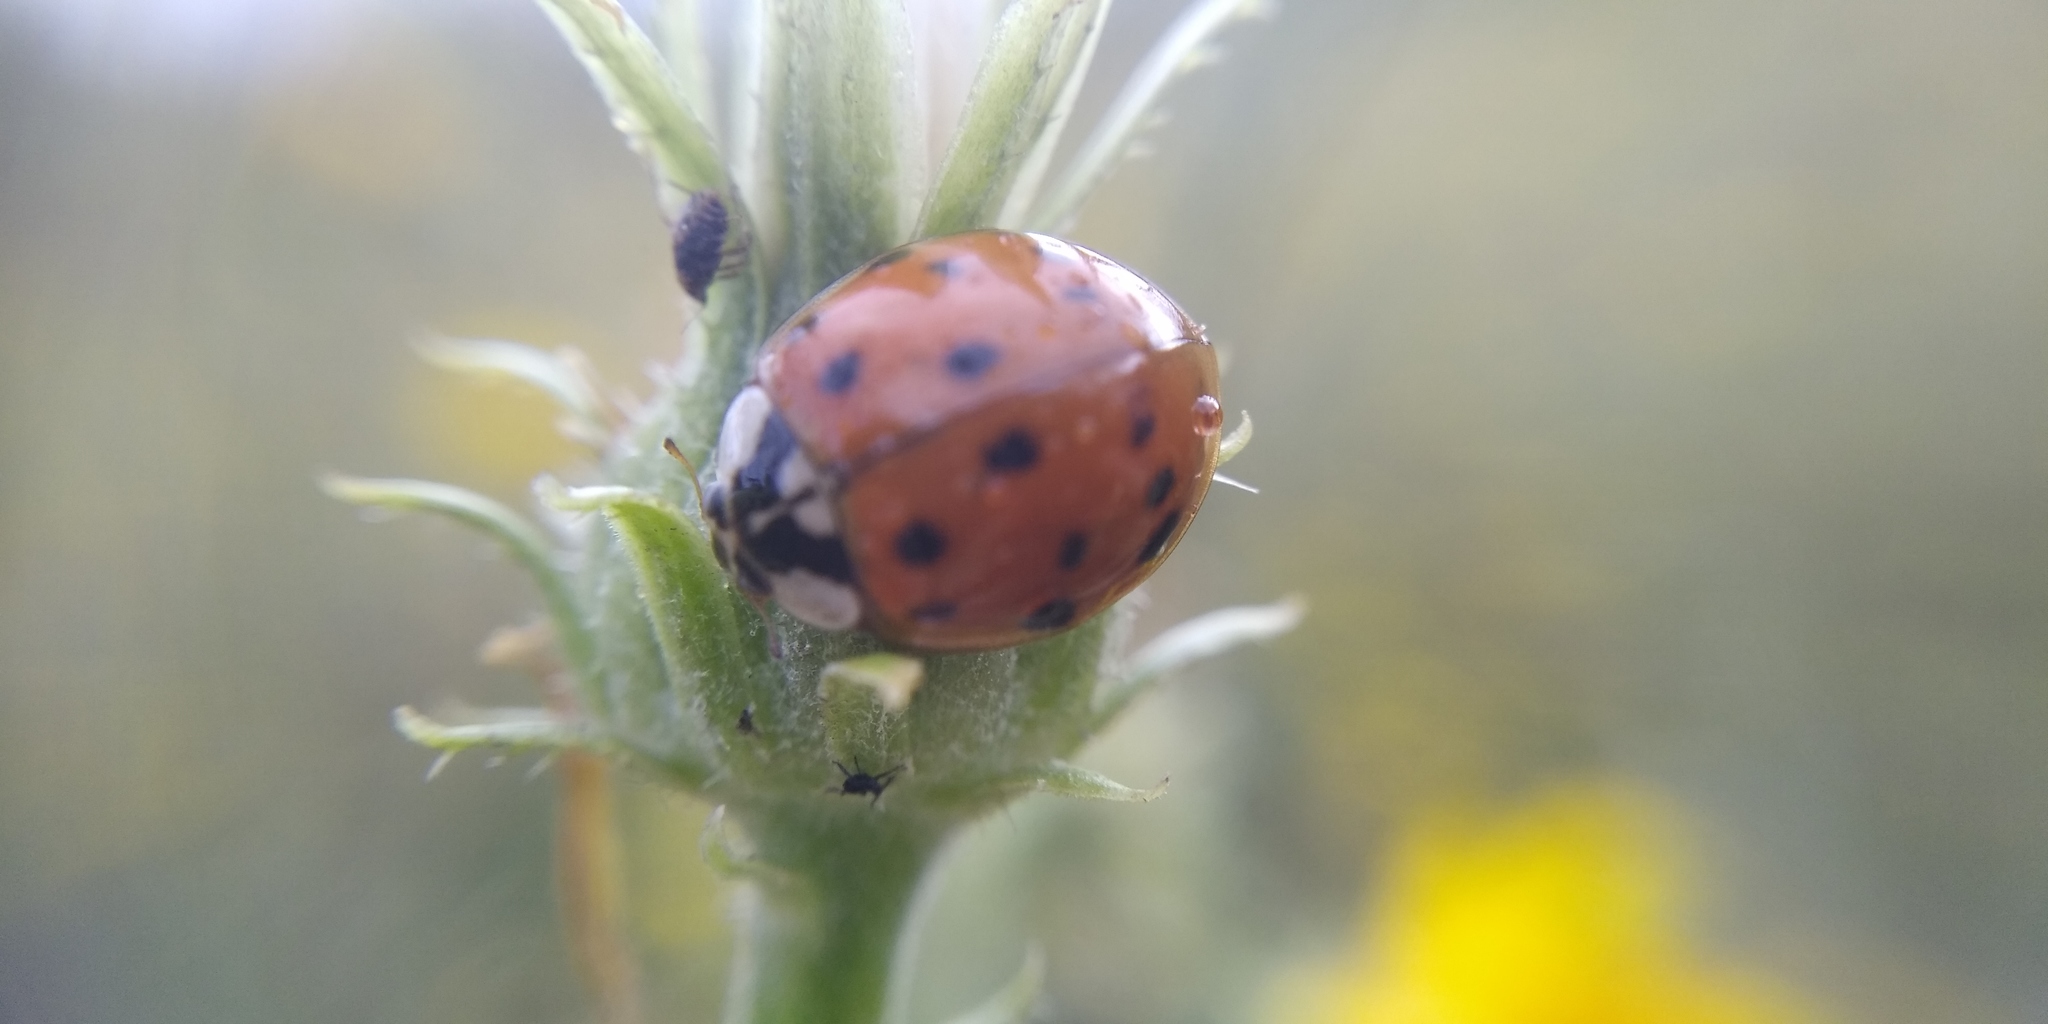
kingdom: Animalia
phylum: Arthropoda
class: Insecta
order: Coleoptera
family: Coccinellidae
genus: Harmonia
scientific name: Harmonia axyridis
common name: Harlequin ladybird
